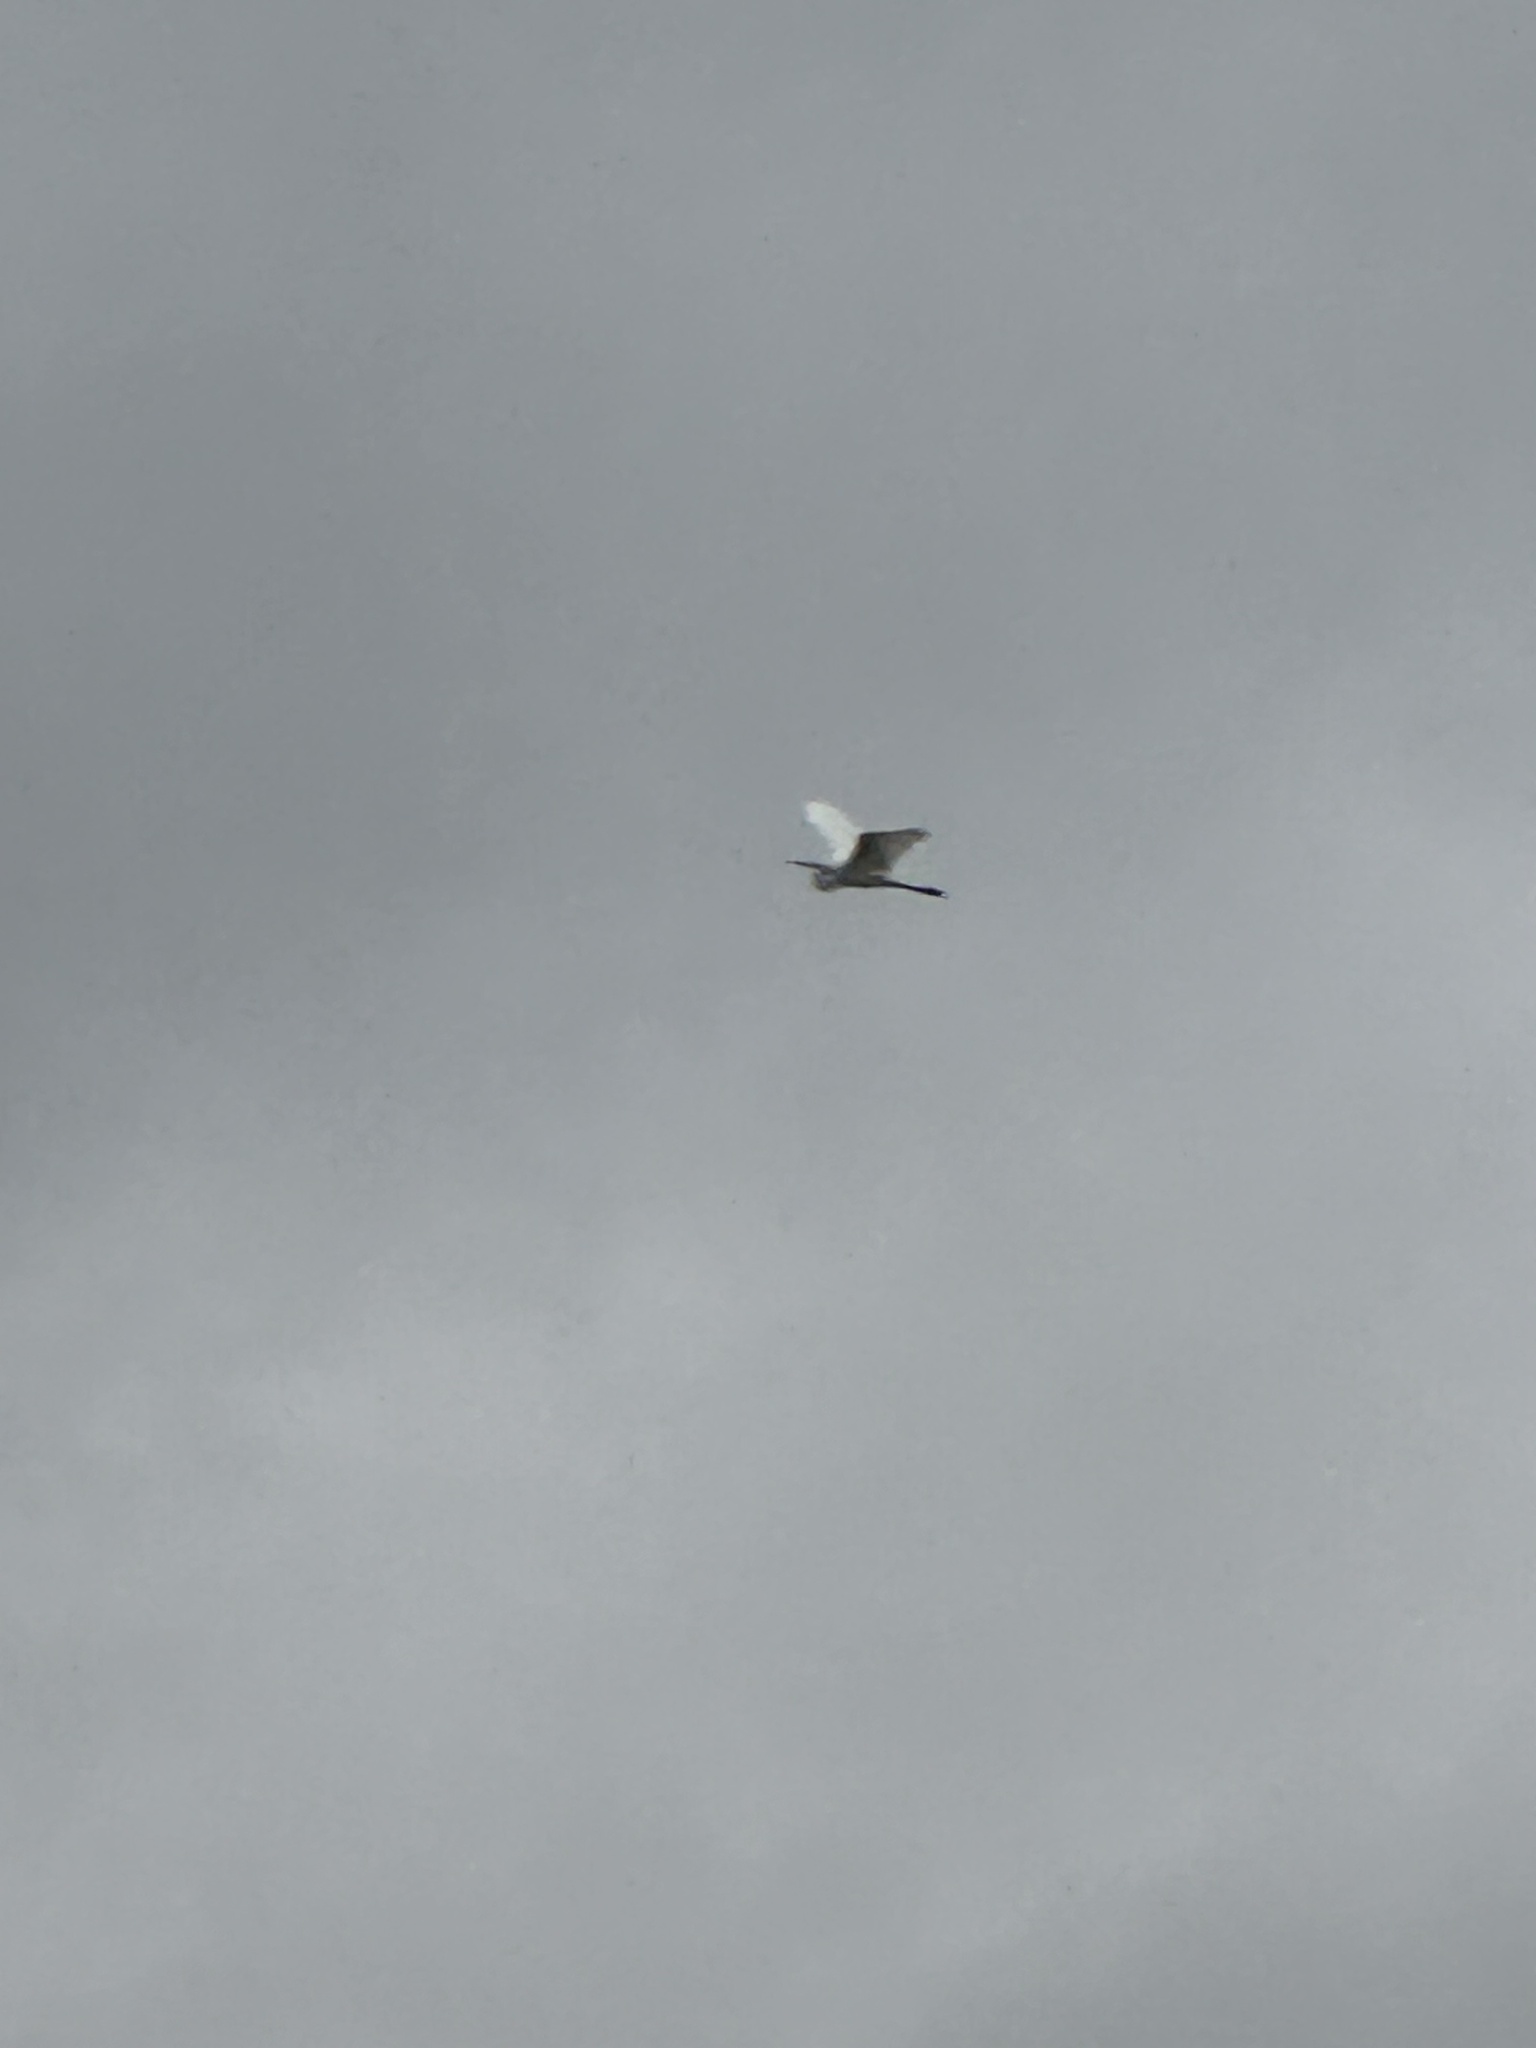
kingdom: Animalia
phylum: Chordata
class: Aves
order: Pelecaniformes
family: Ardeidae
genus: Ardea
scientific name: Ardea alba
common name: Great egret
